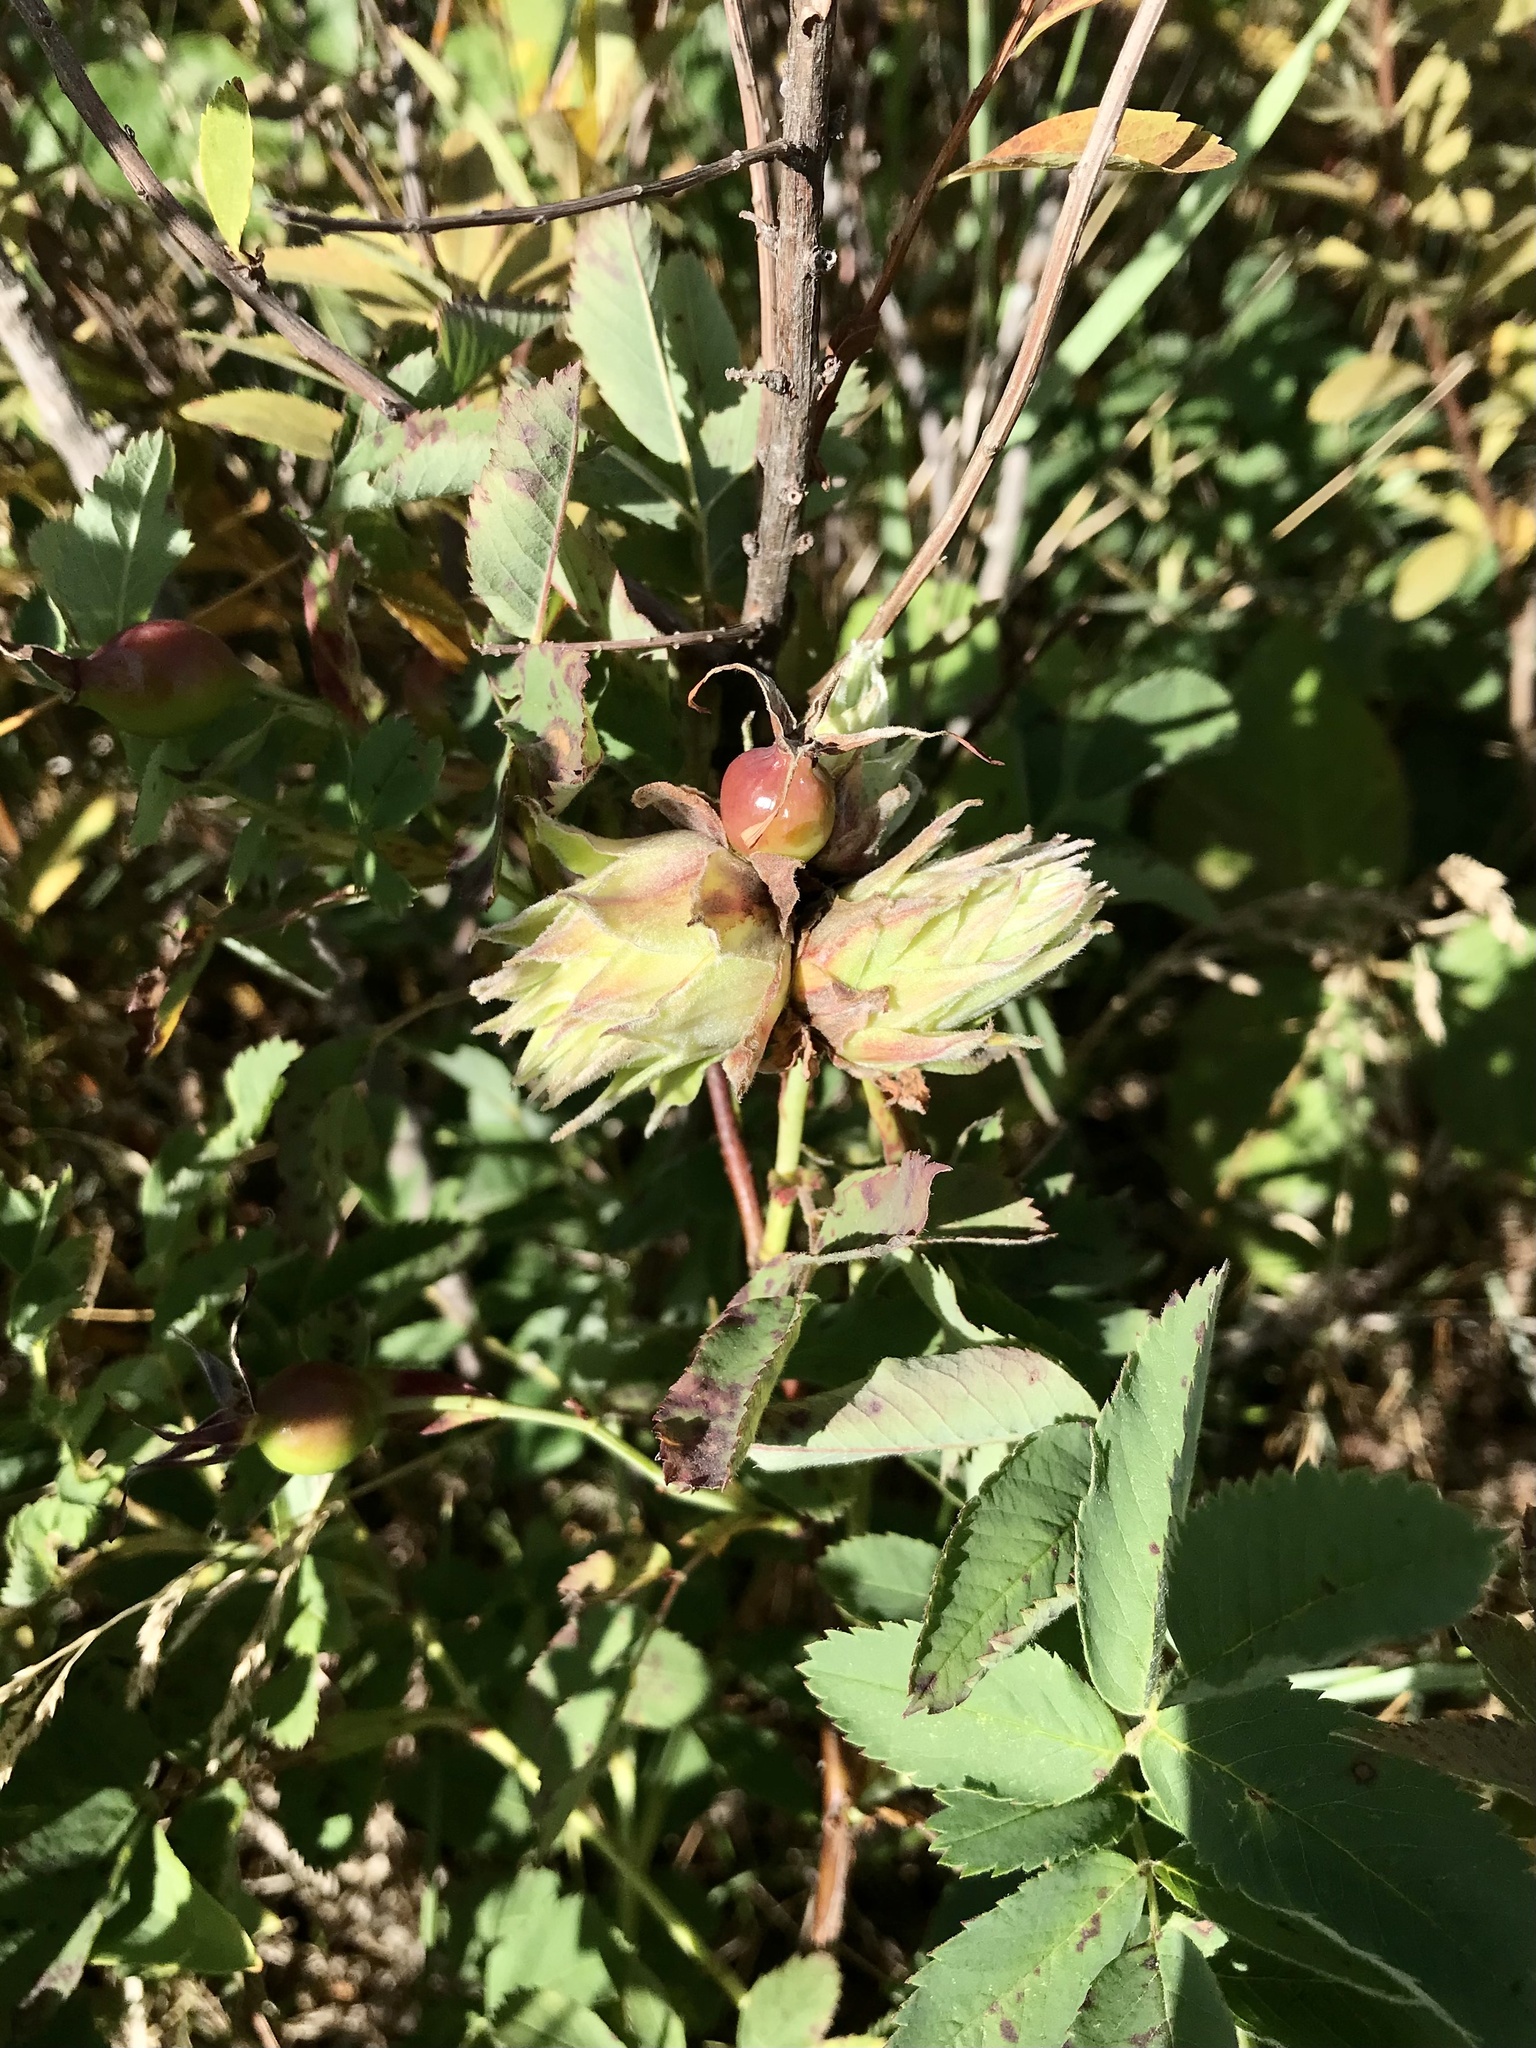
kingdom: Animalia
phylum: Arthropoda
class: Insecta
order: Diptera
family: Cecidomyiidae
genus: Rabdophaga
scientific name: Rabdophaga rosacea
